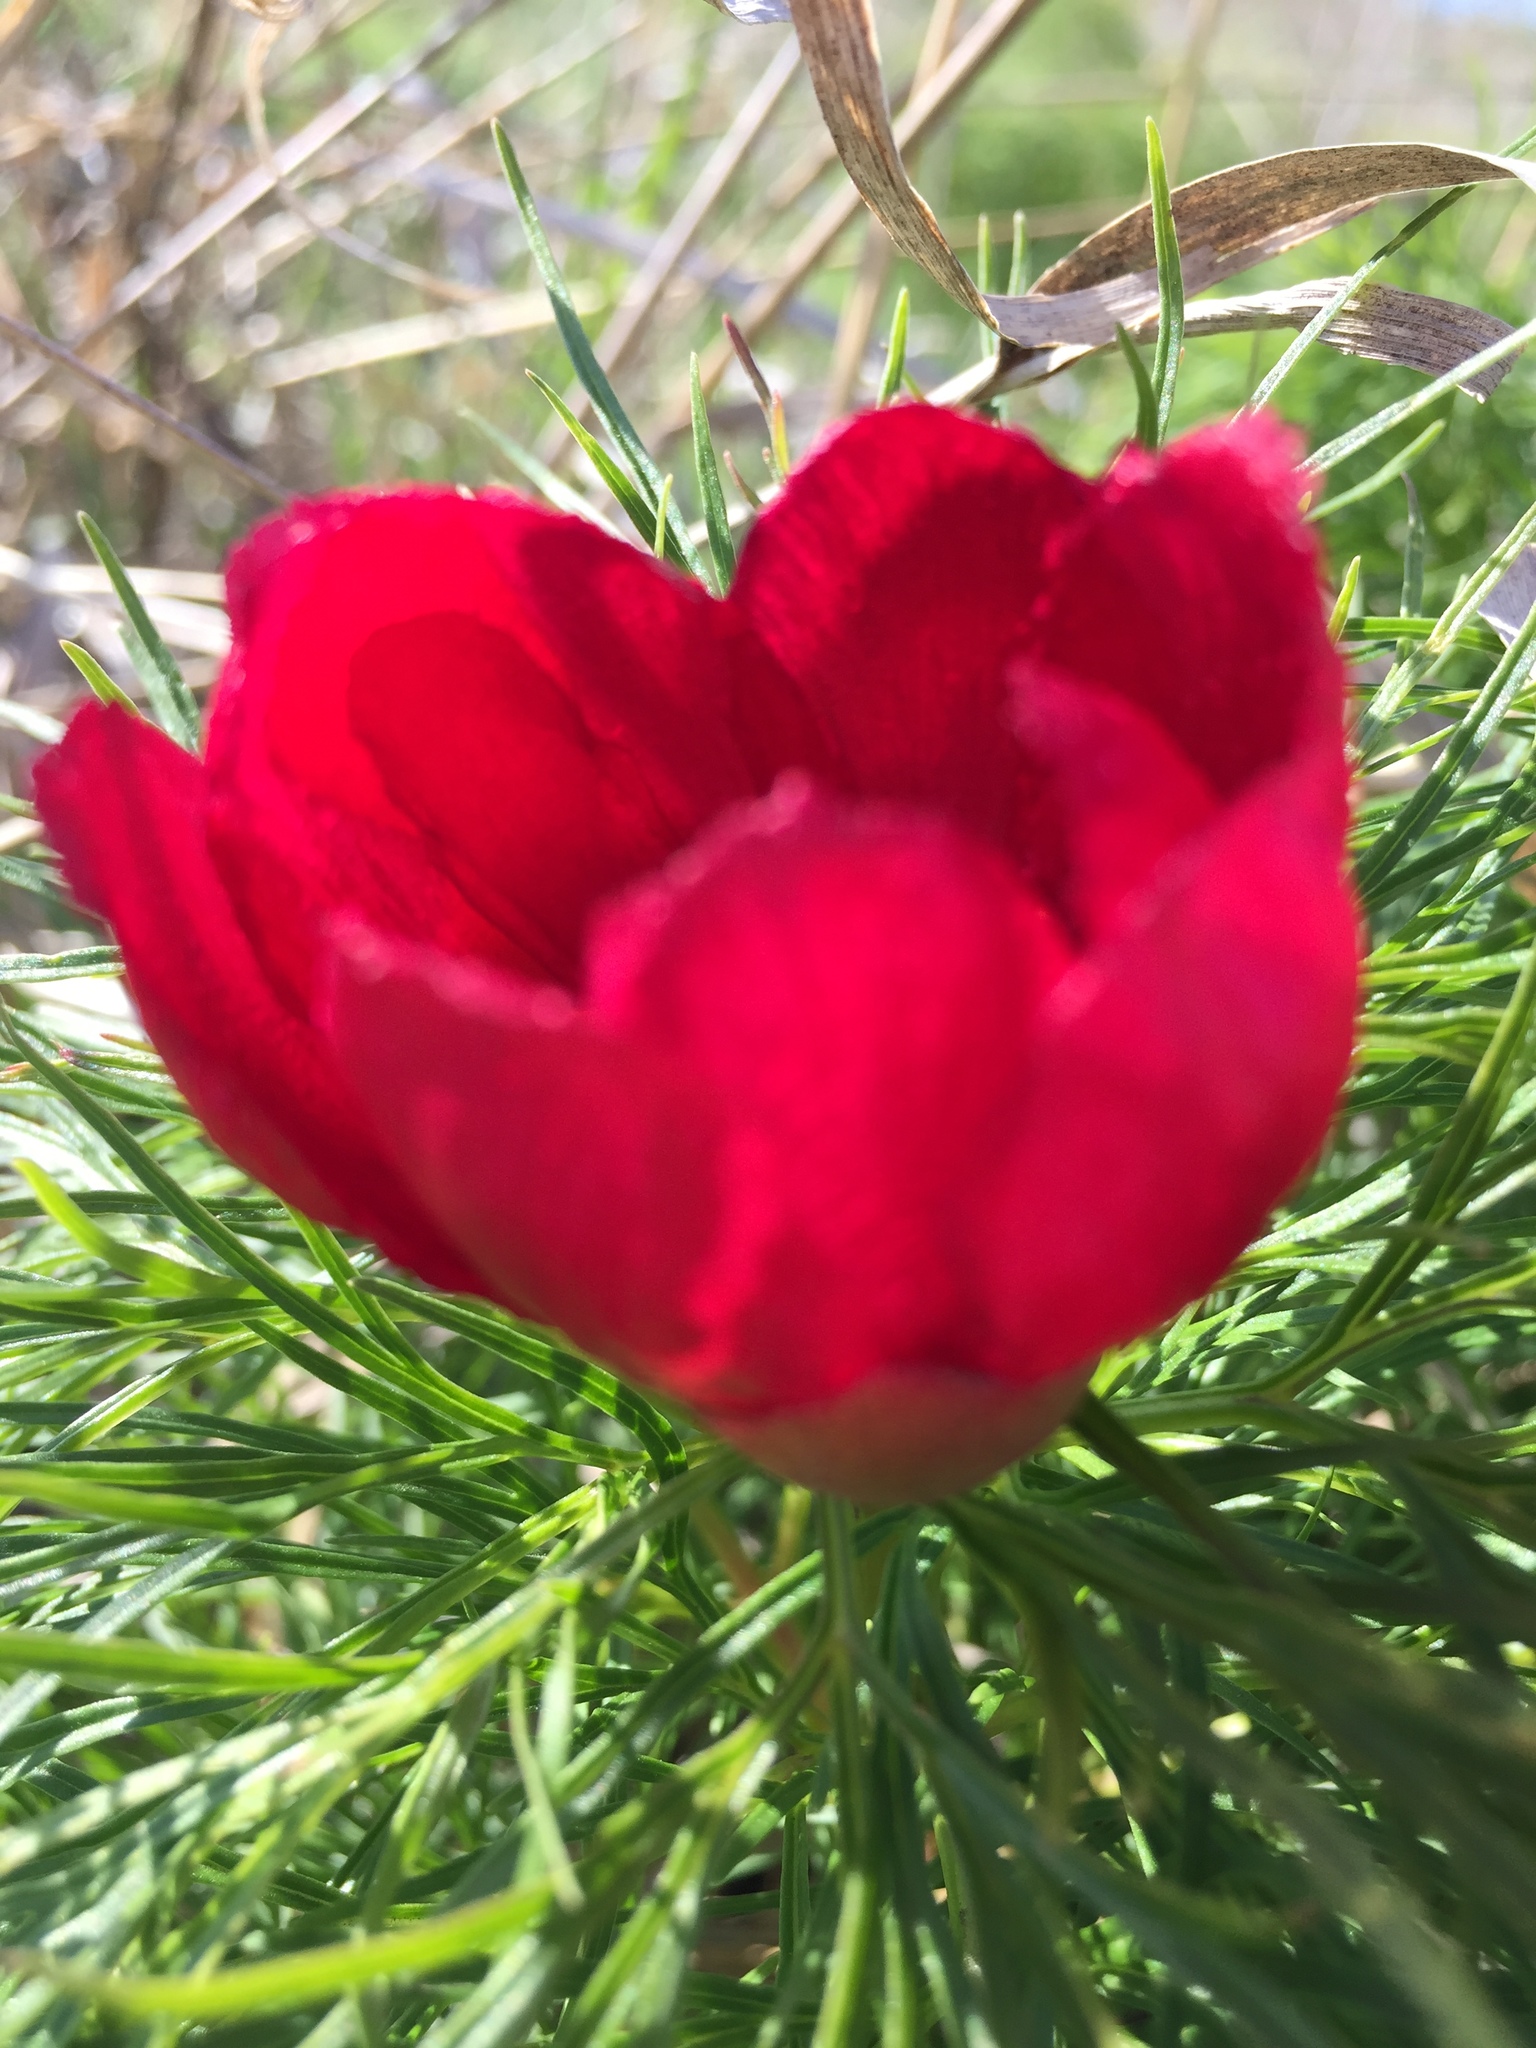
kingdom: Plantae
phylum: Tracheophyta
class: Magnoliopsida
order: Saxifragales
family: Paeoniaceae
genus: Paeonia
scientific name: Paeonia tenuifolia
